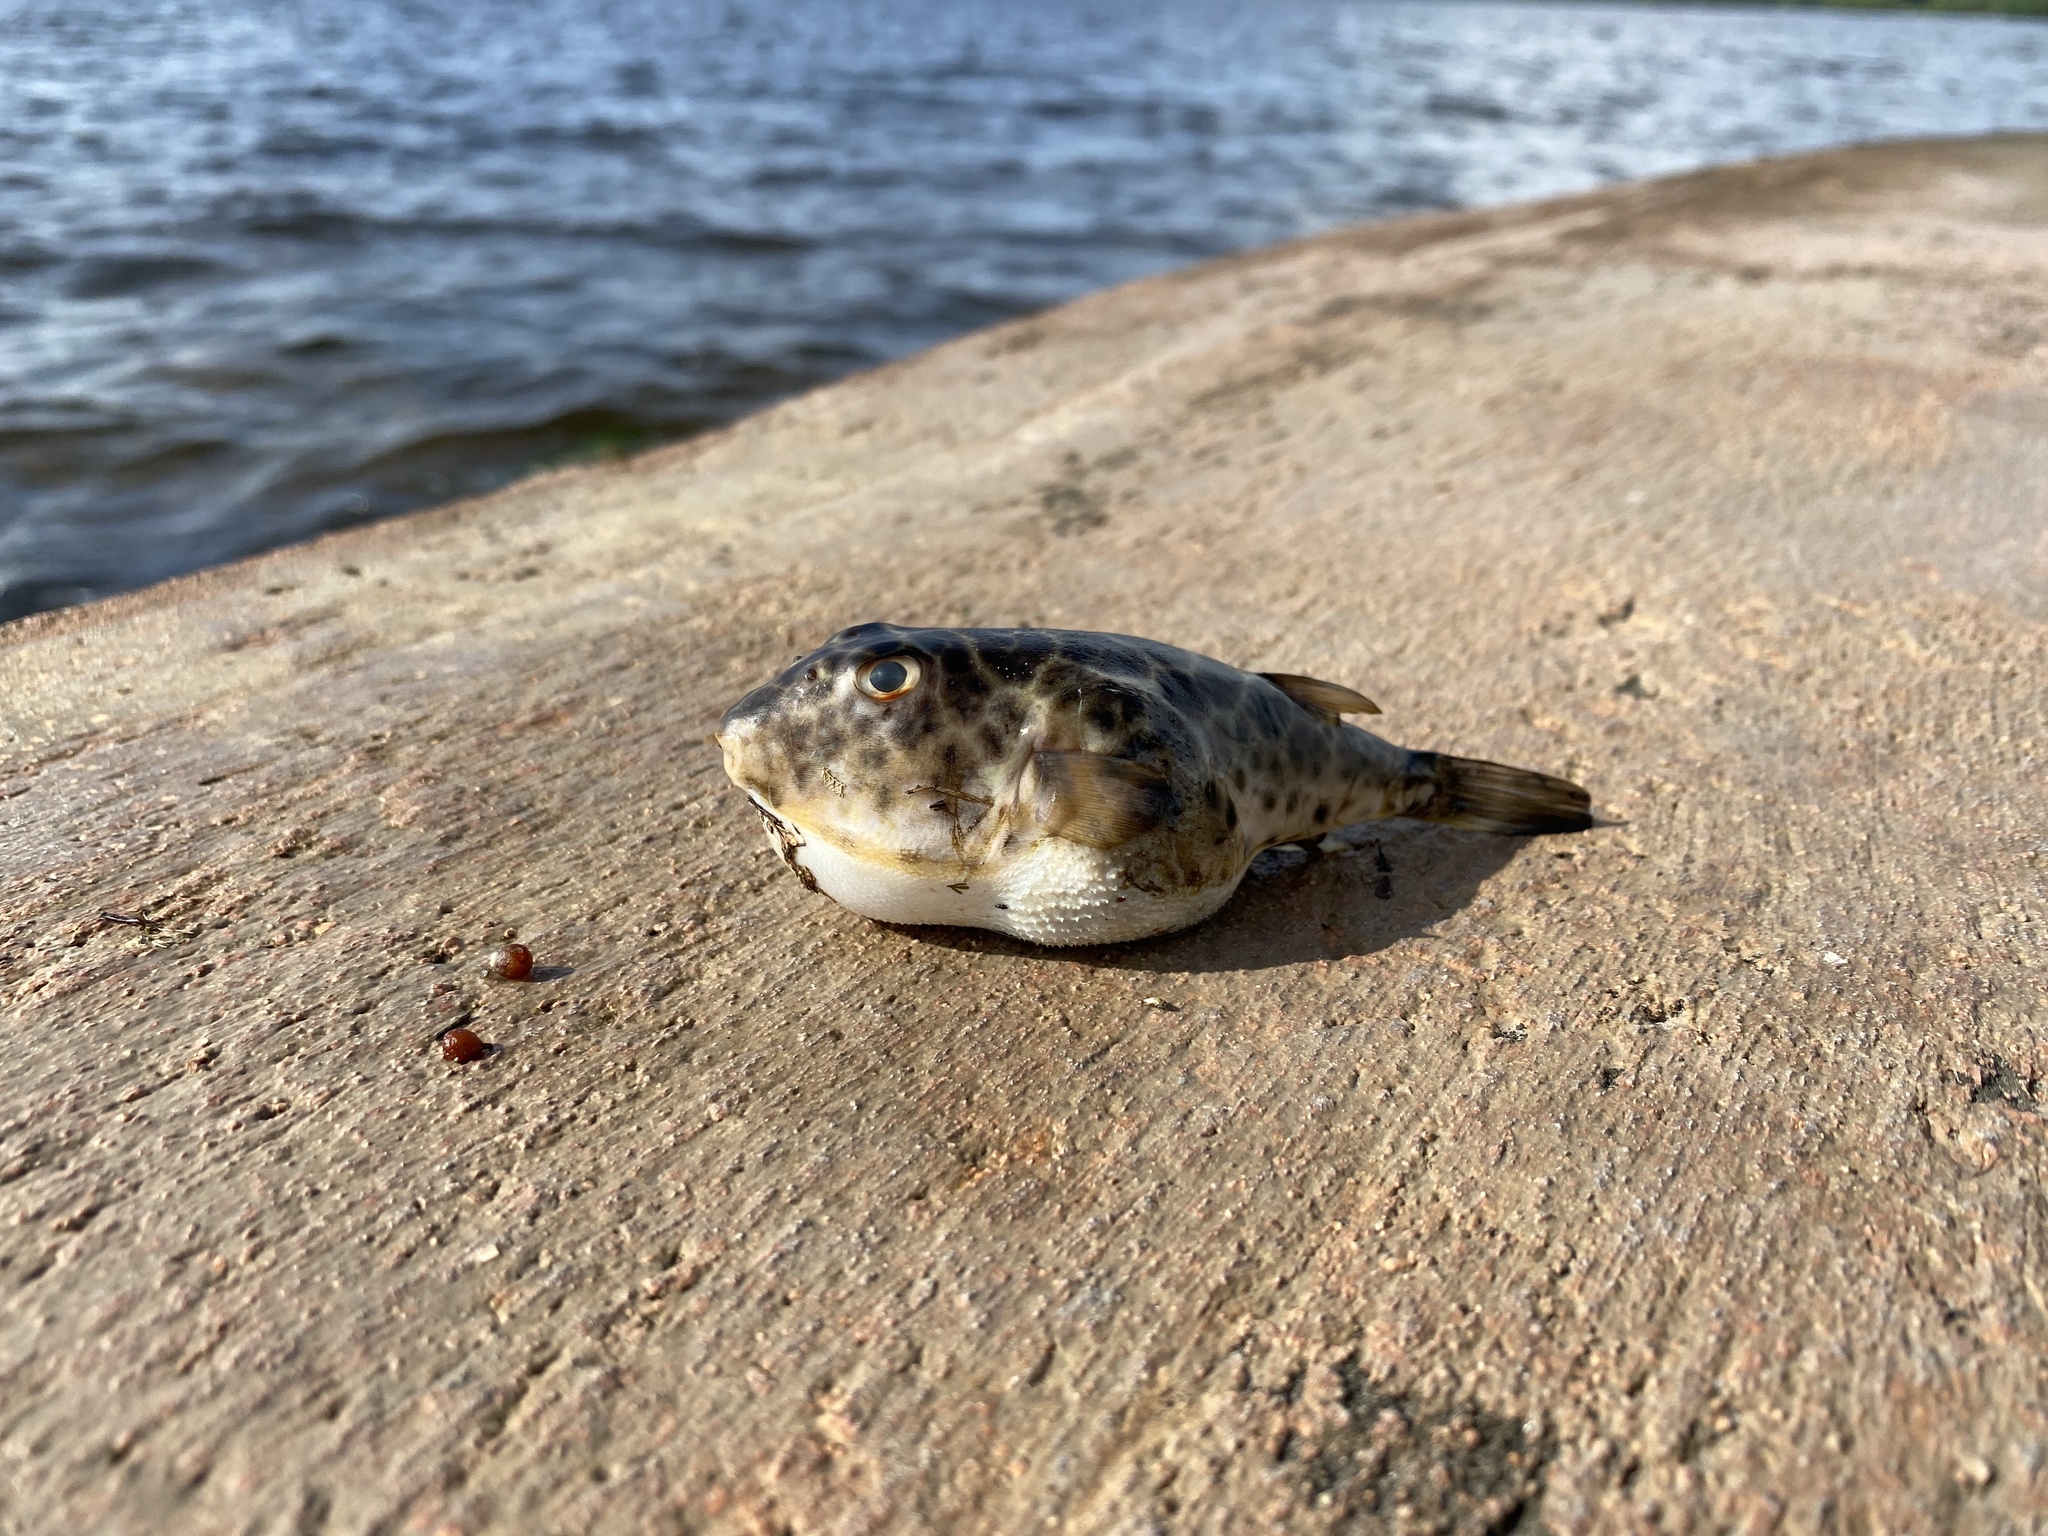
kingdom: Animalia
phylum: Chordata
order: Tetraodontiformes
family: Tetraodontidae
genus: Sphoeroides
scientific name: Sphoeroides testudineus
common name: Checkered puffer
